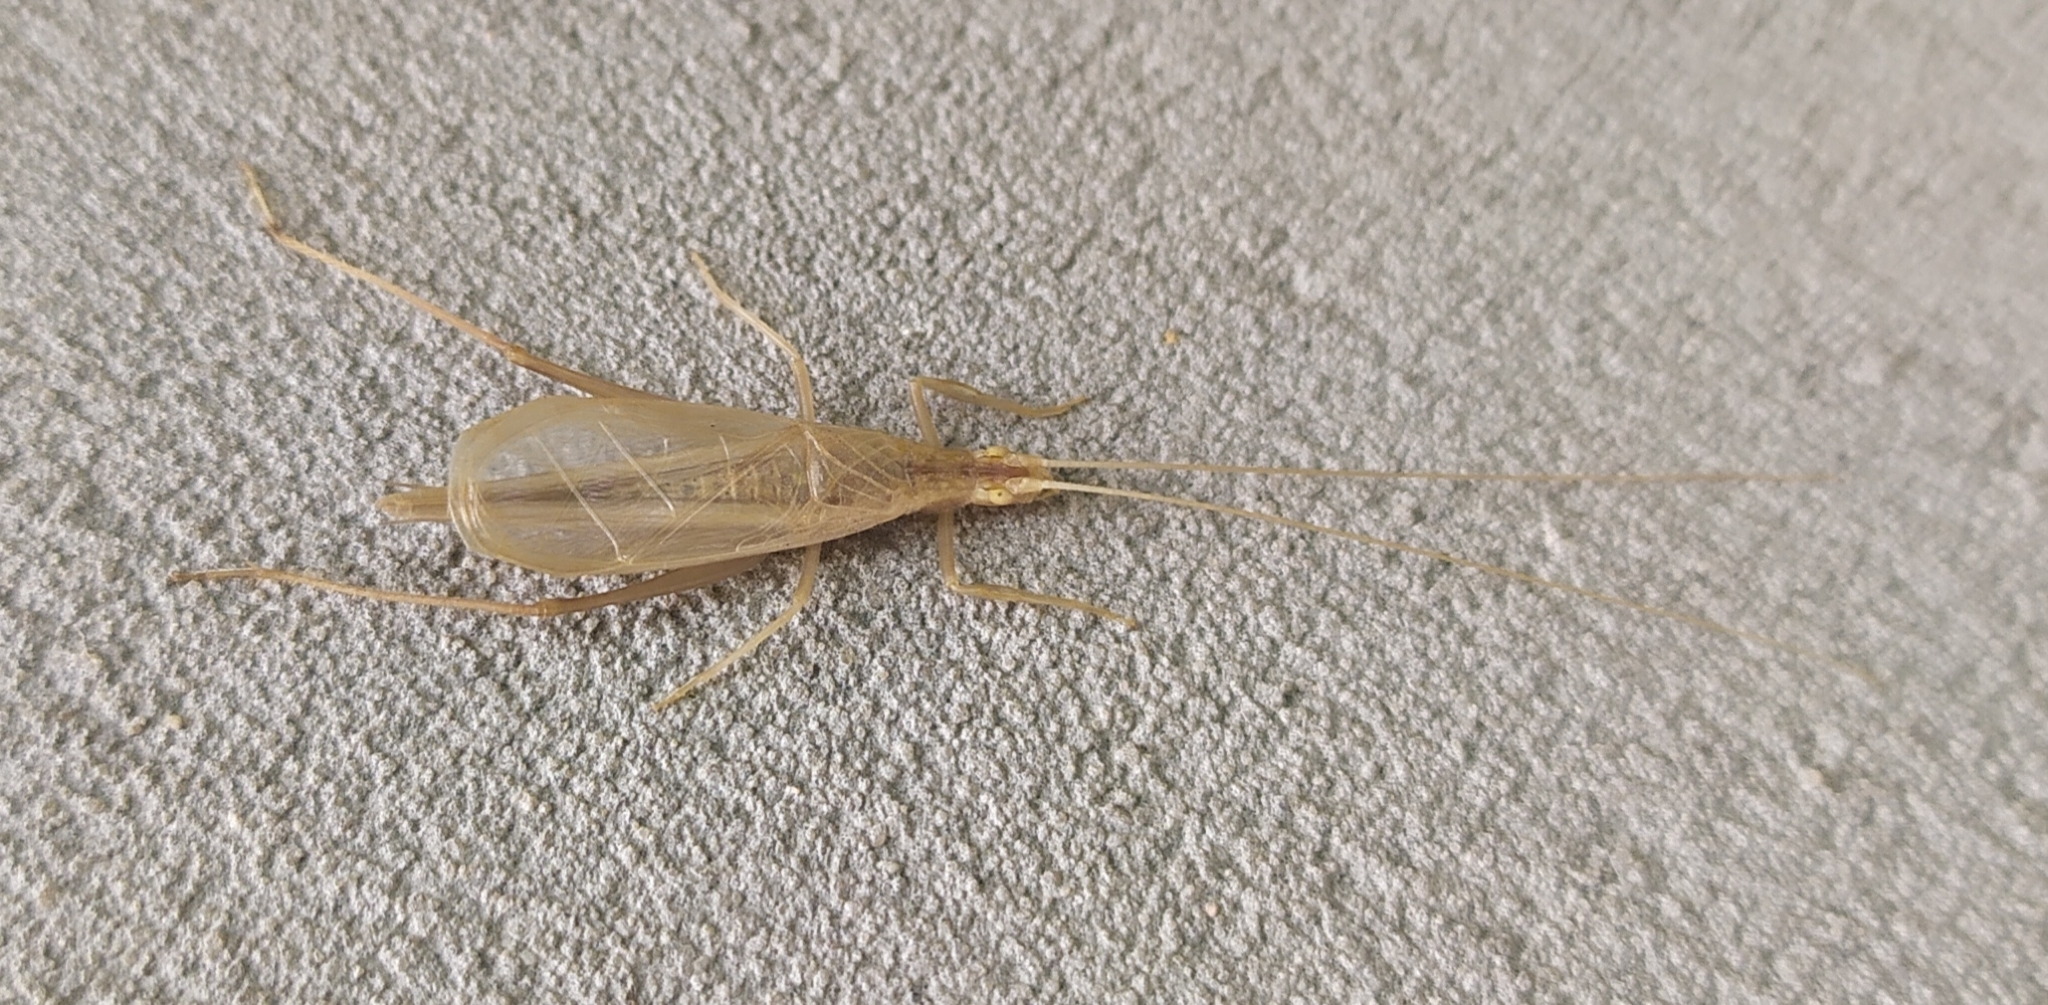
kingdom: Animalia
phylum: Arthropoda
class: Insecta
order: Orthoptera
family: Gryllidae
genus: Oecanthus
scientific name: Oecanthus pellucens
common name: Tree-cricket
